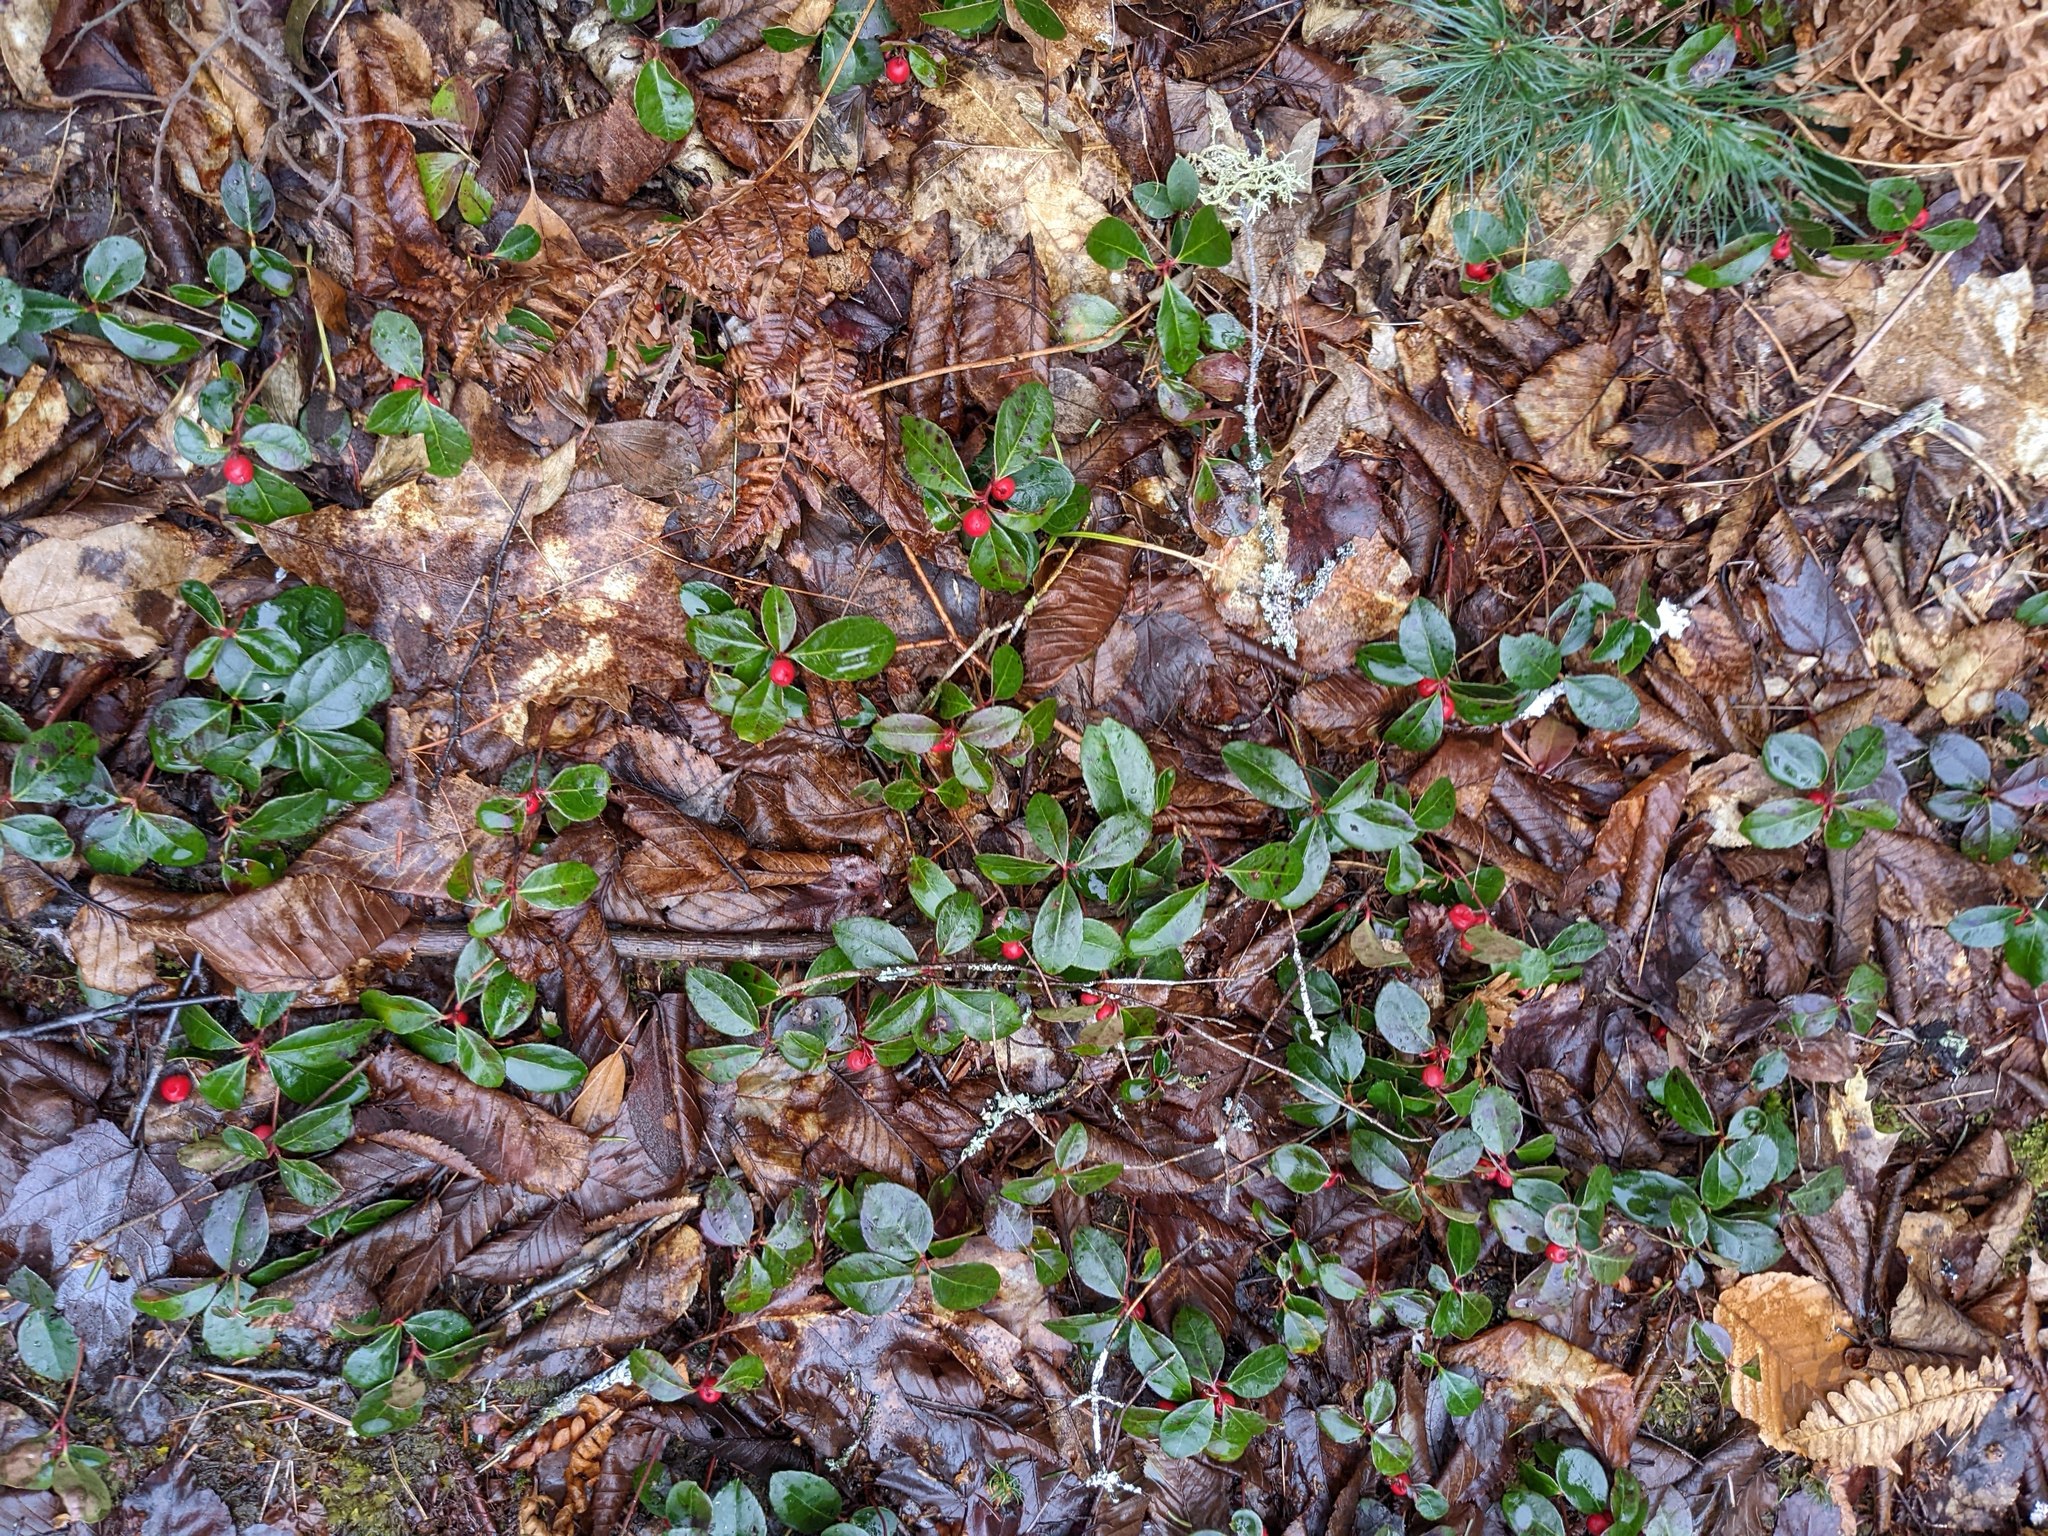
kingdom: Plantae
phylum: Tracheophyta
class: Magnoliopsida
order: Ericales
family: Ericaceae
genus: Gaultheria
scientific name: Gaultheria procumbens
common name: Checkerberry
